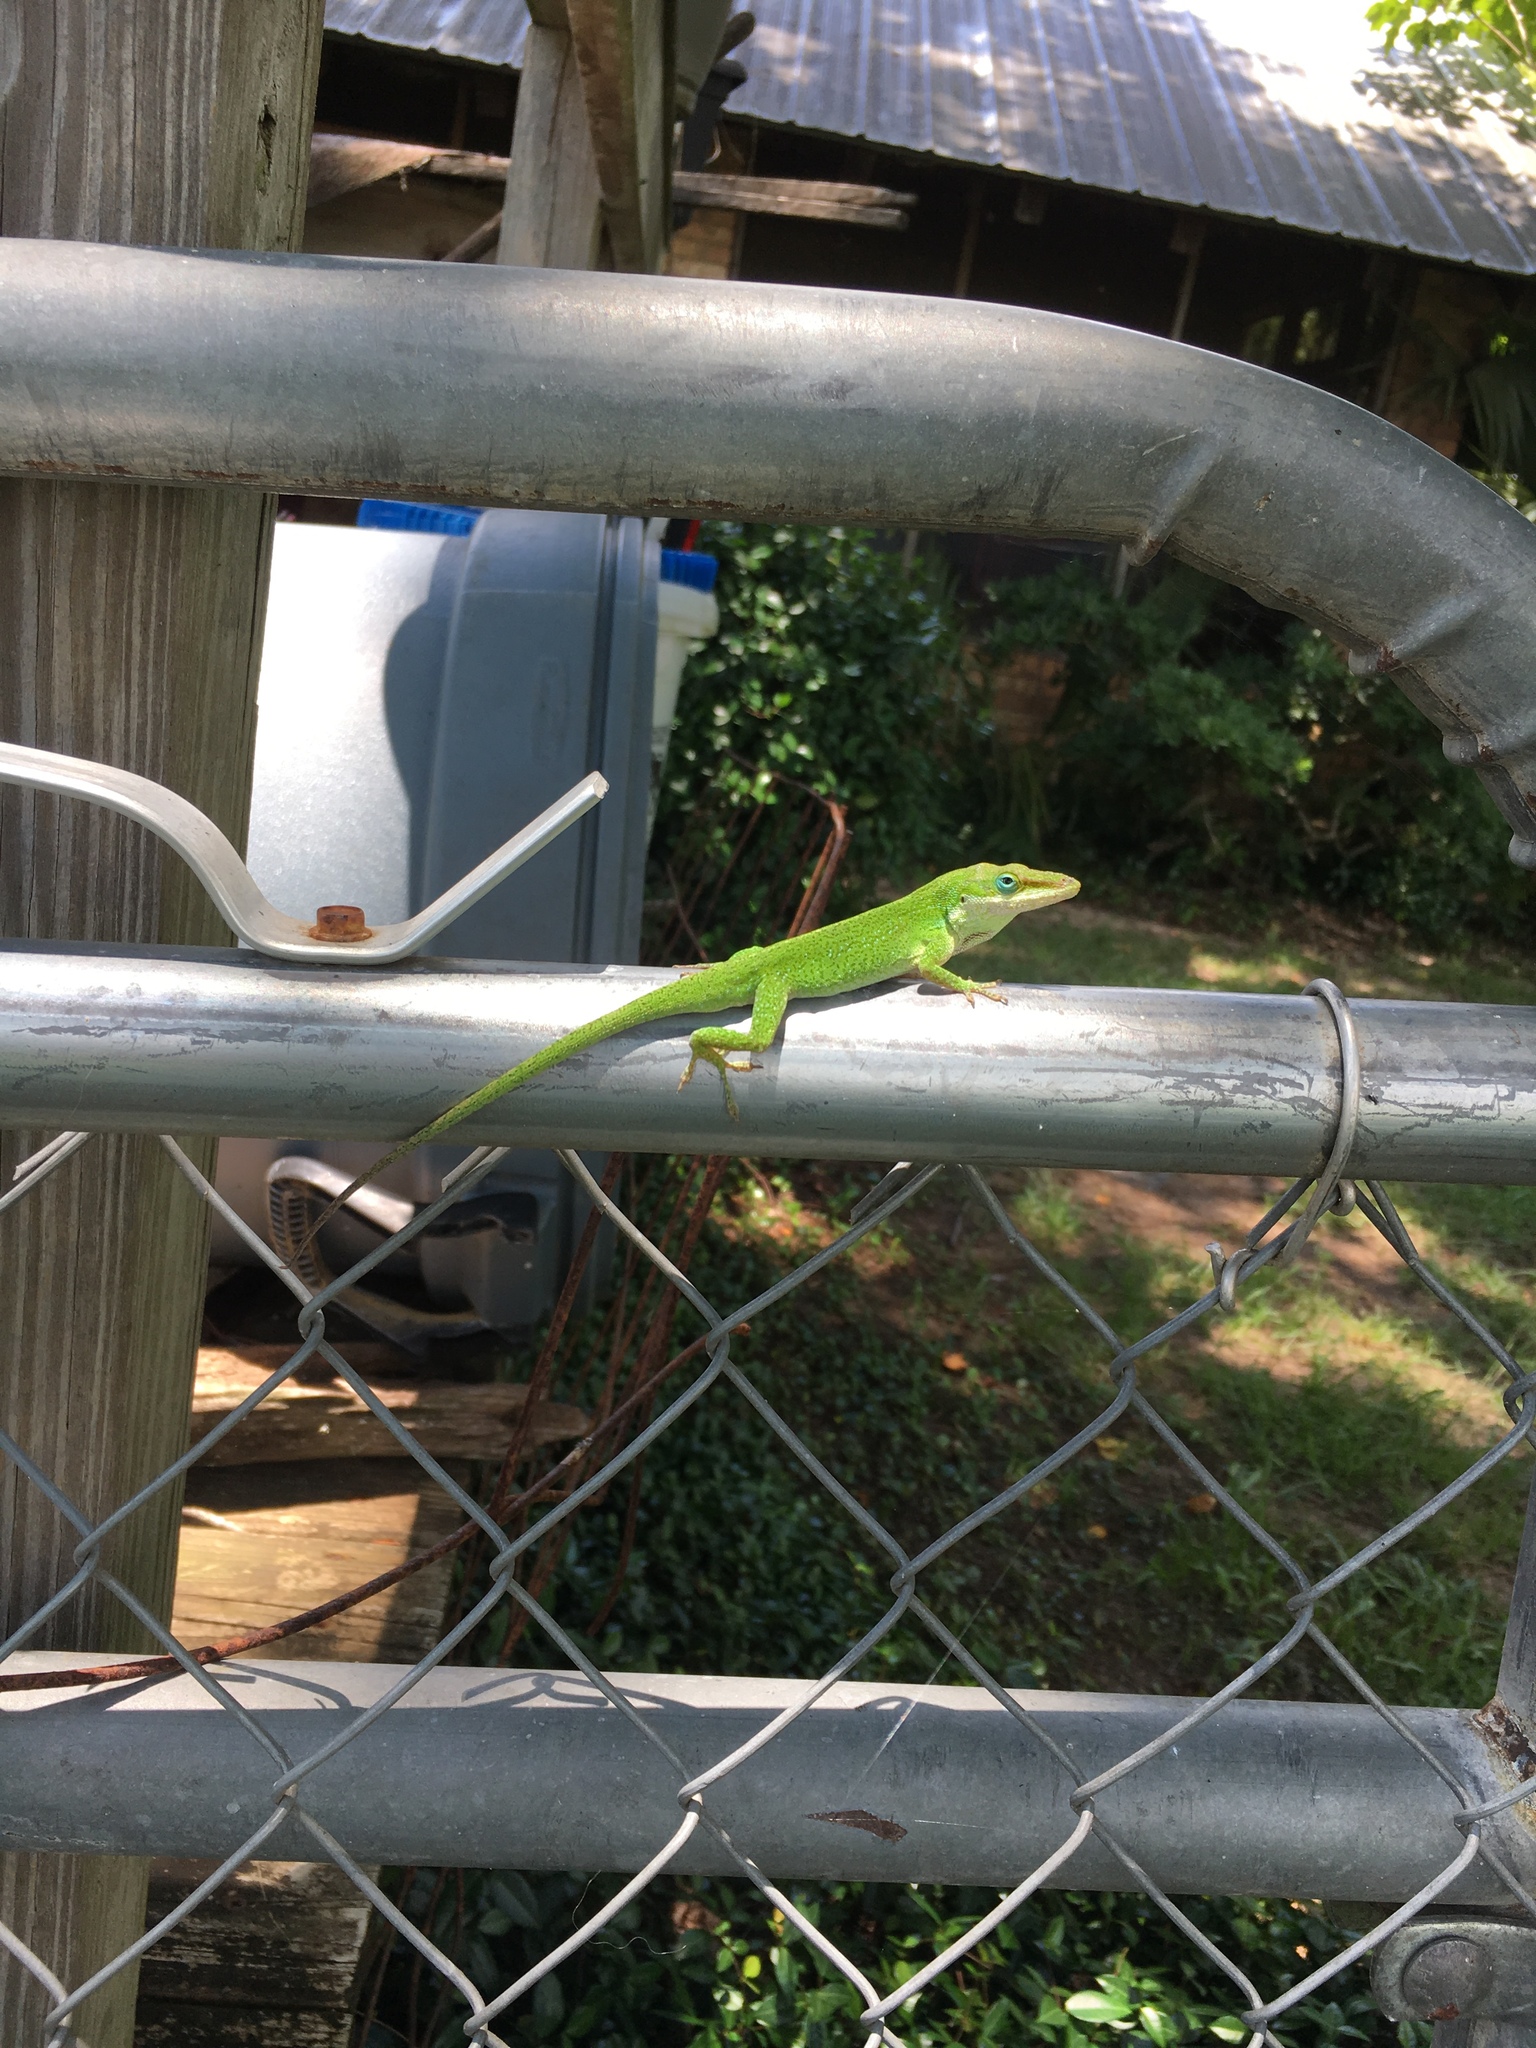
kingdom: Animalia
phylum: Chordata
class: Squamata
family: Dactyloidae
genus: Anolis
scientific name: Anolis carolinensis
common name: Green anole
